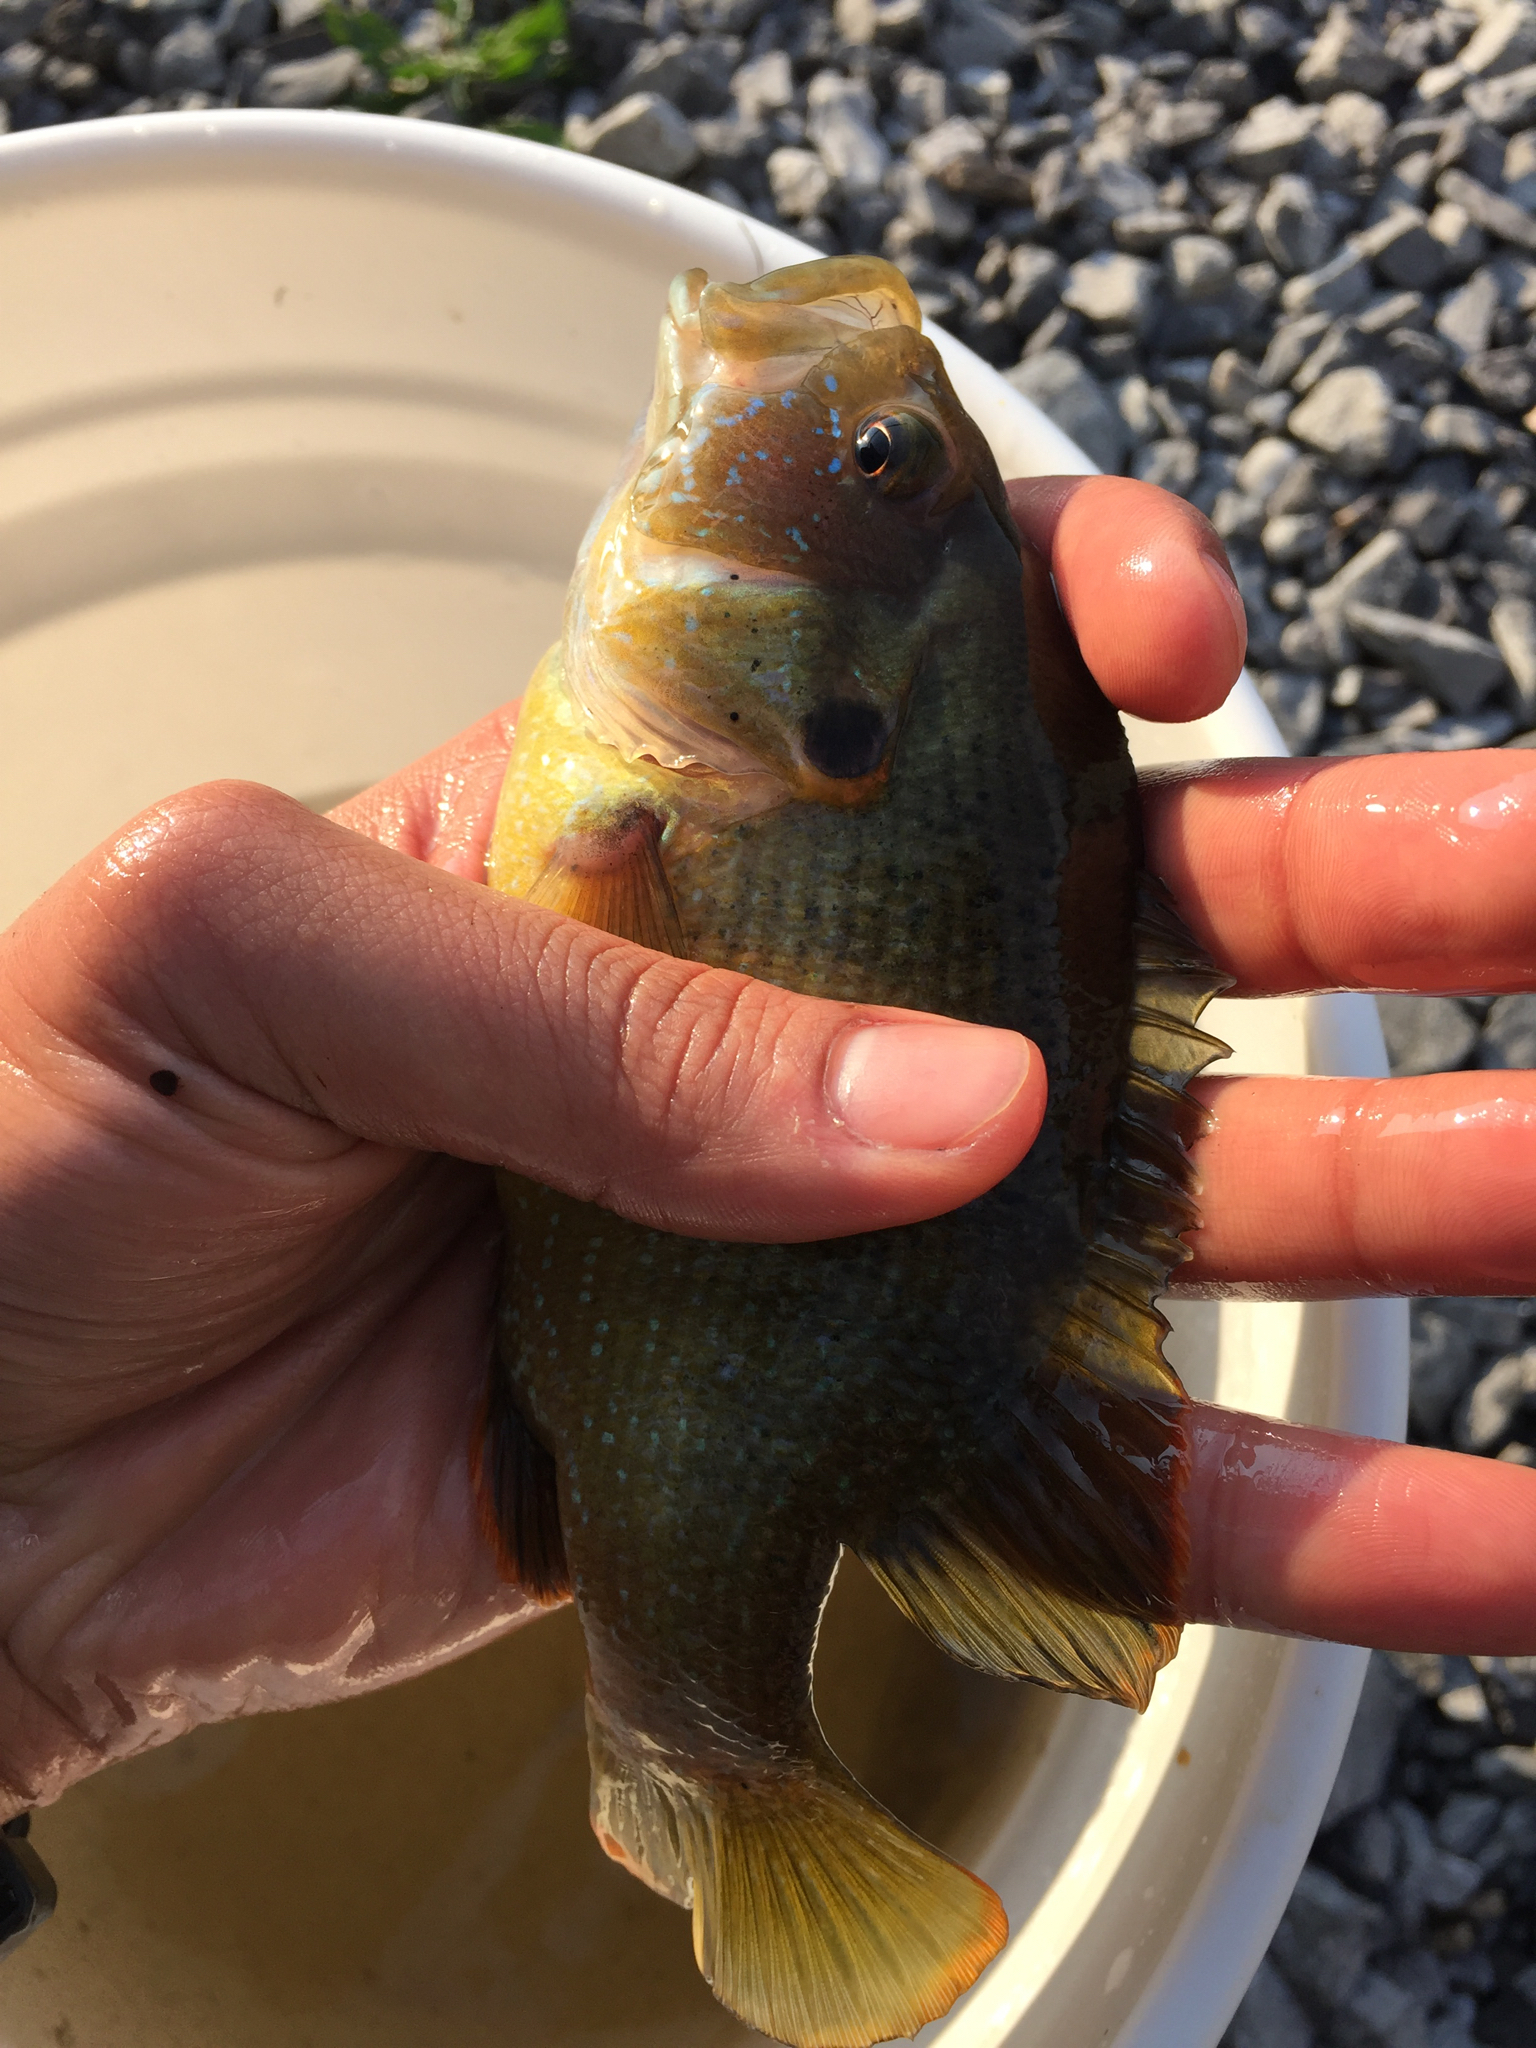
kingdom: Animalia
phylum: Chordata
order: Perciformes
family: Centrarchidae
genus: Lepomis
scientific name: Lepomis cyanellus
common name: Green sunfish
